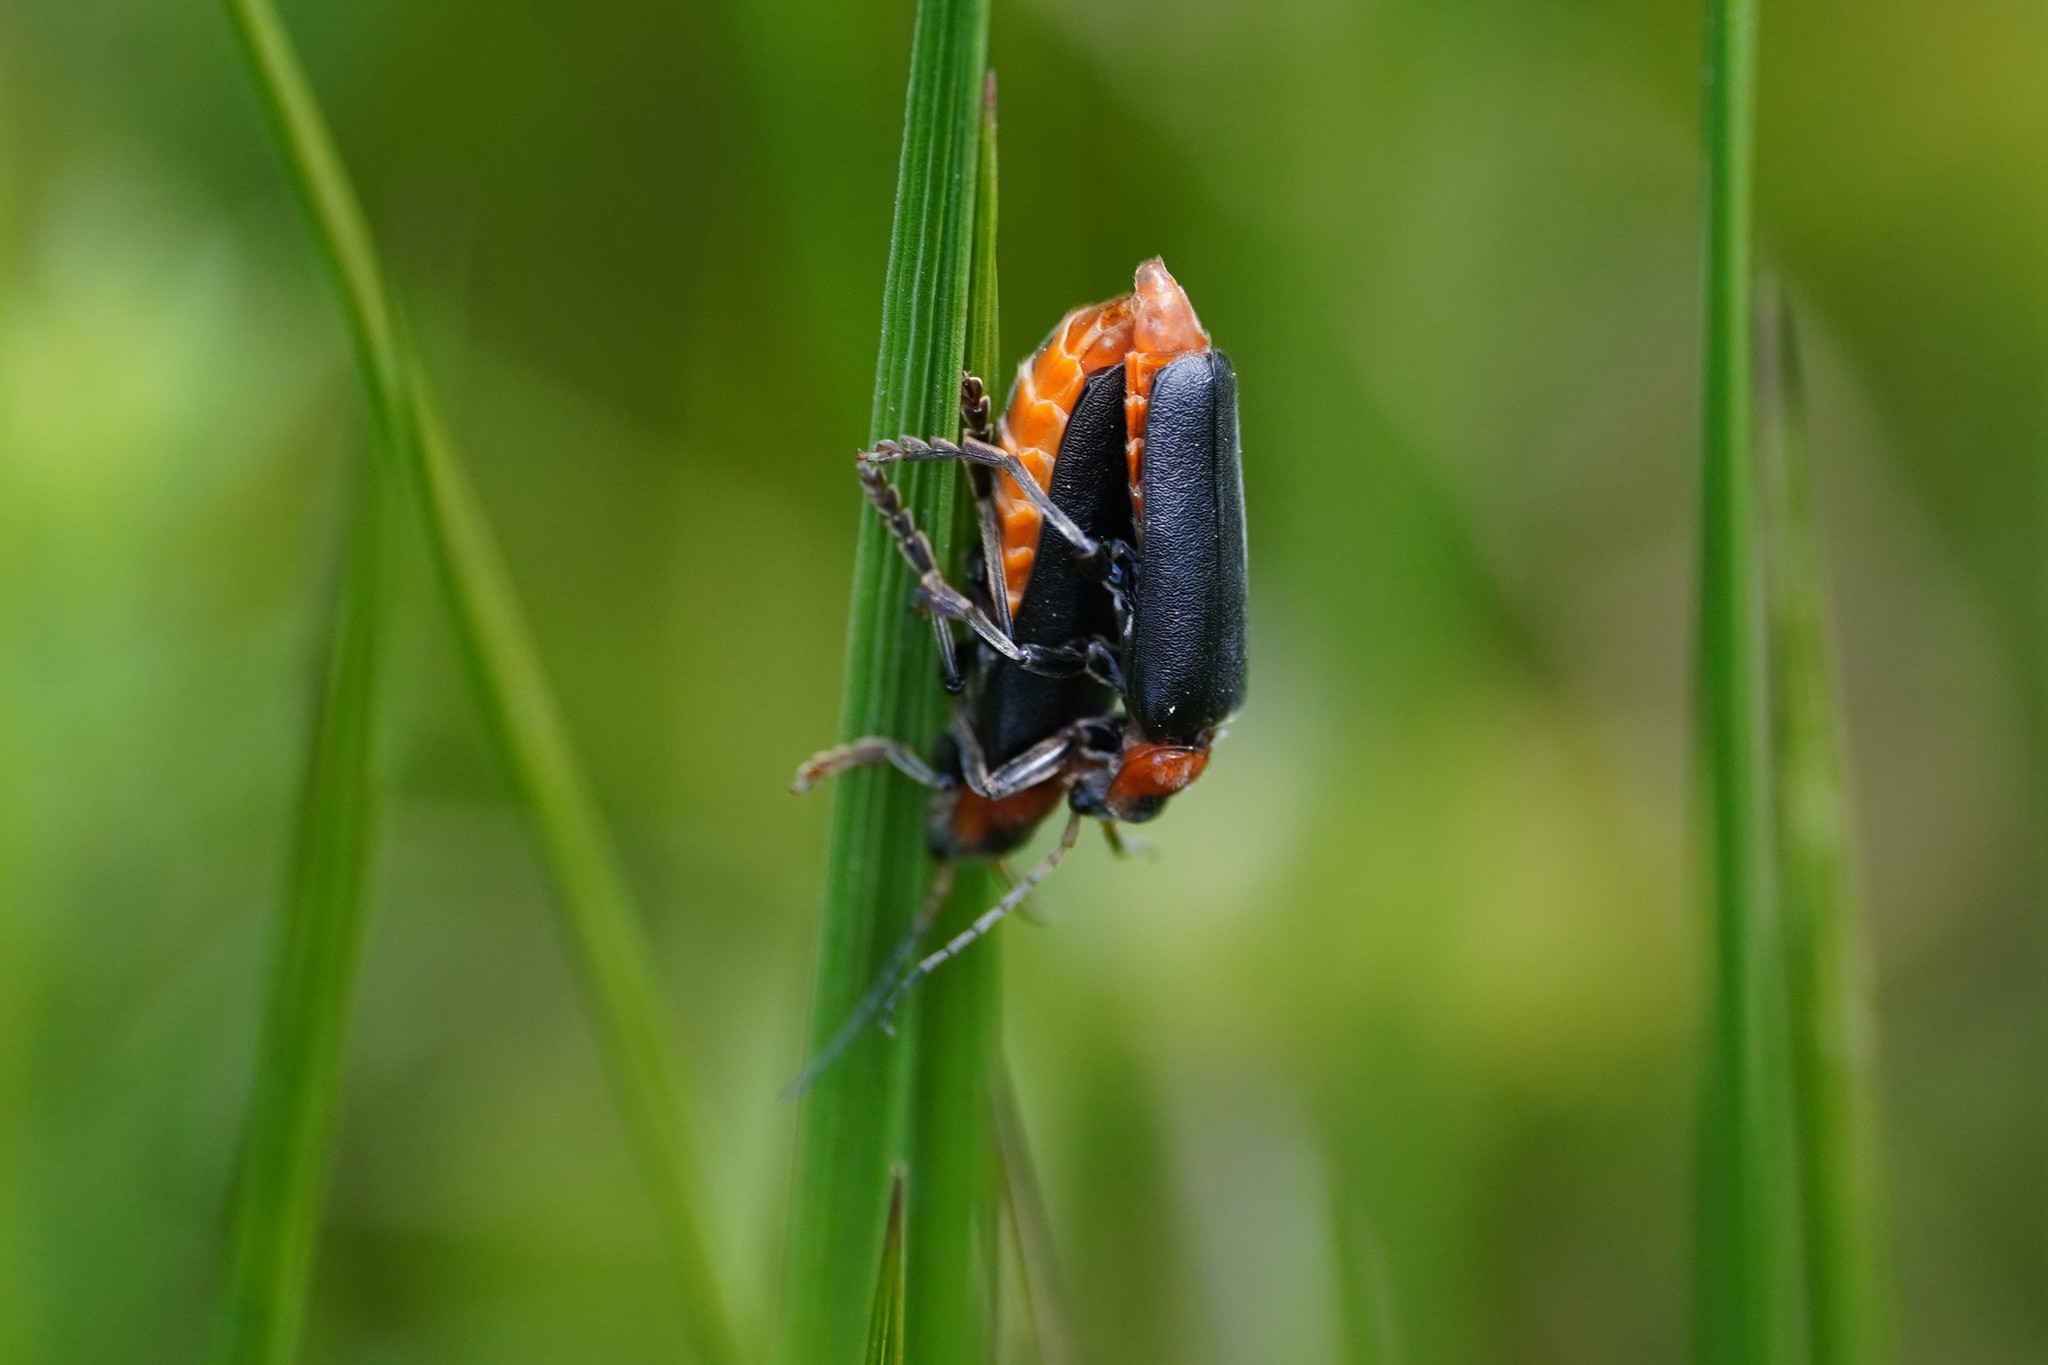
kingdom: Animalia
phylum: Arthropoda
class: Insecta
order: Coleoptera
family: Cantharidae
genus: Cantharis
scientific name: Cantharis fusca
